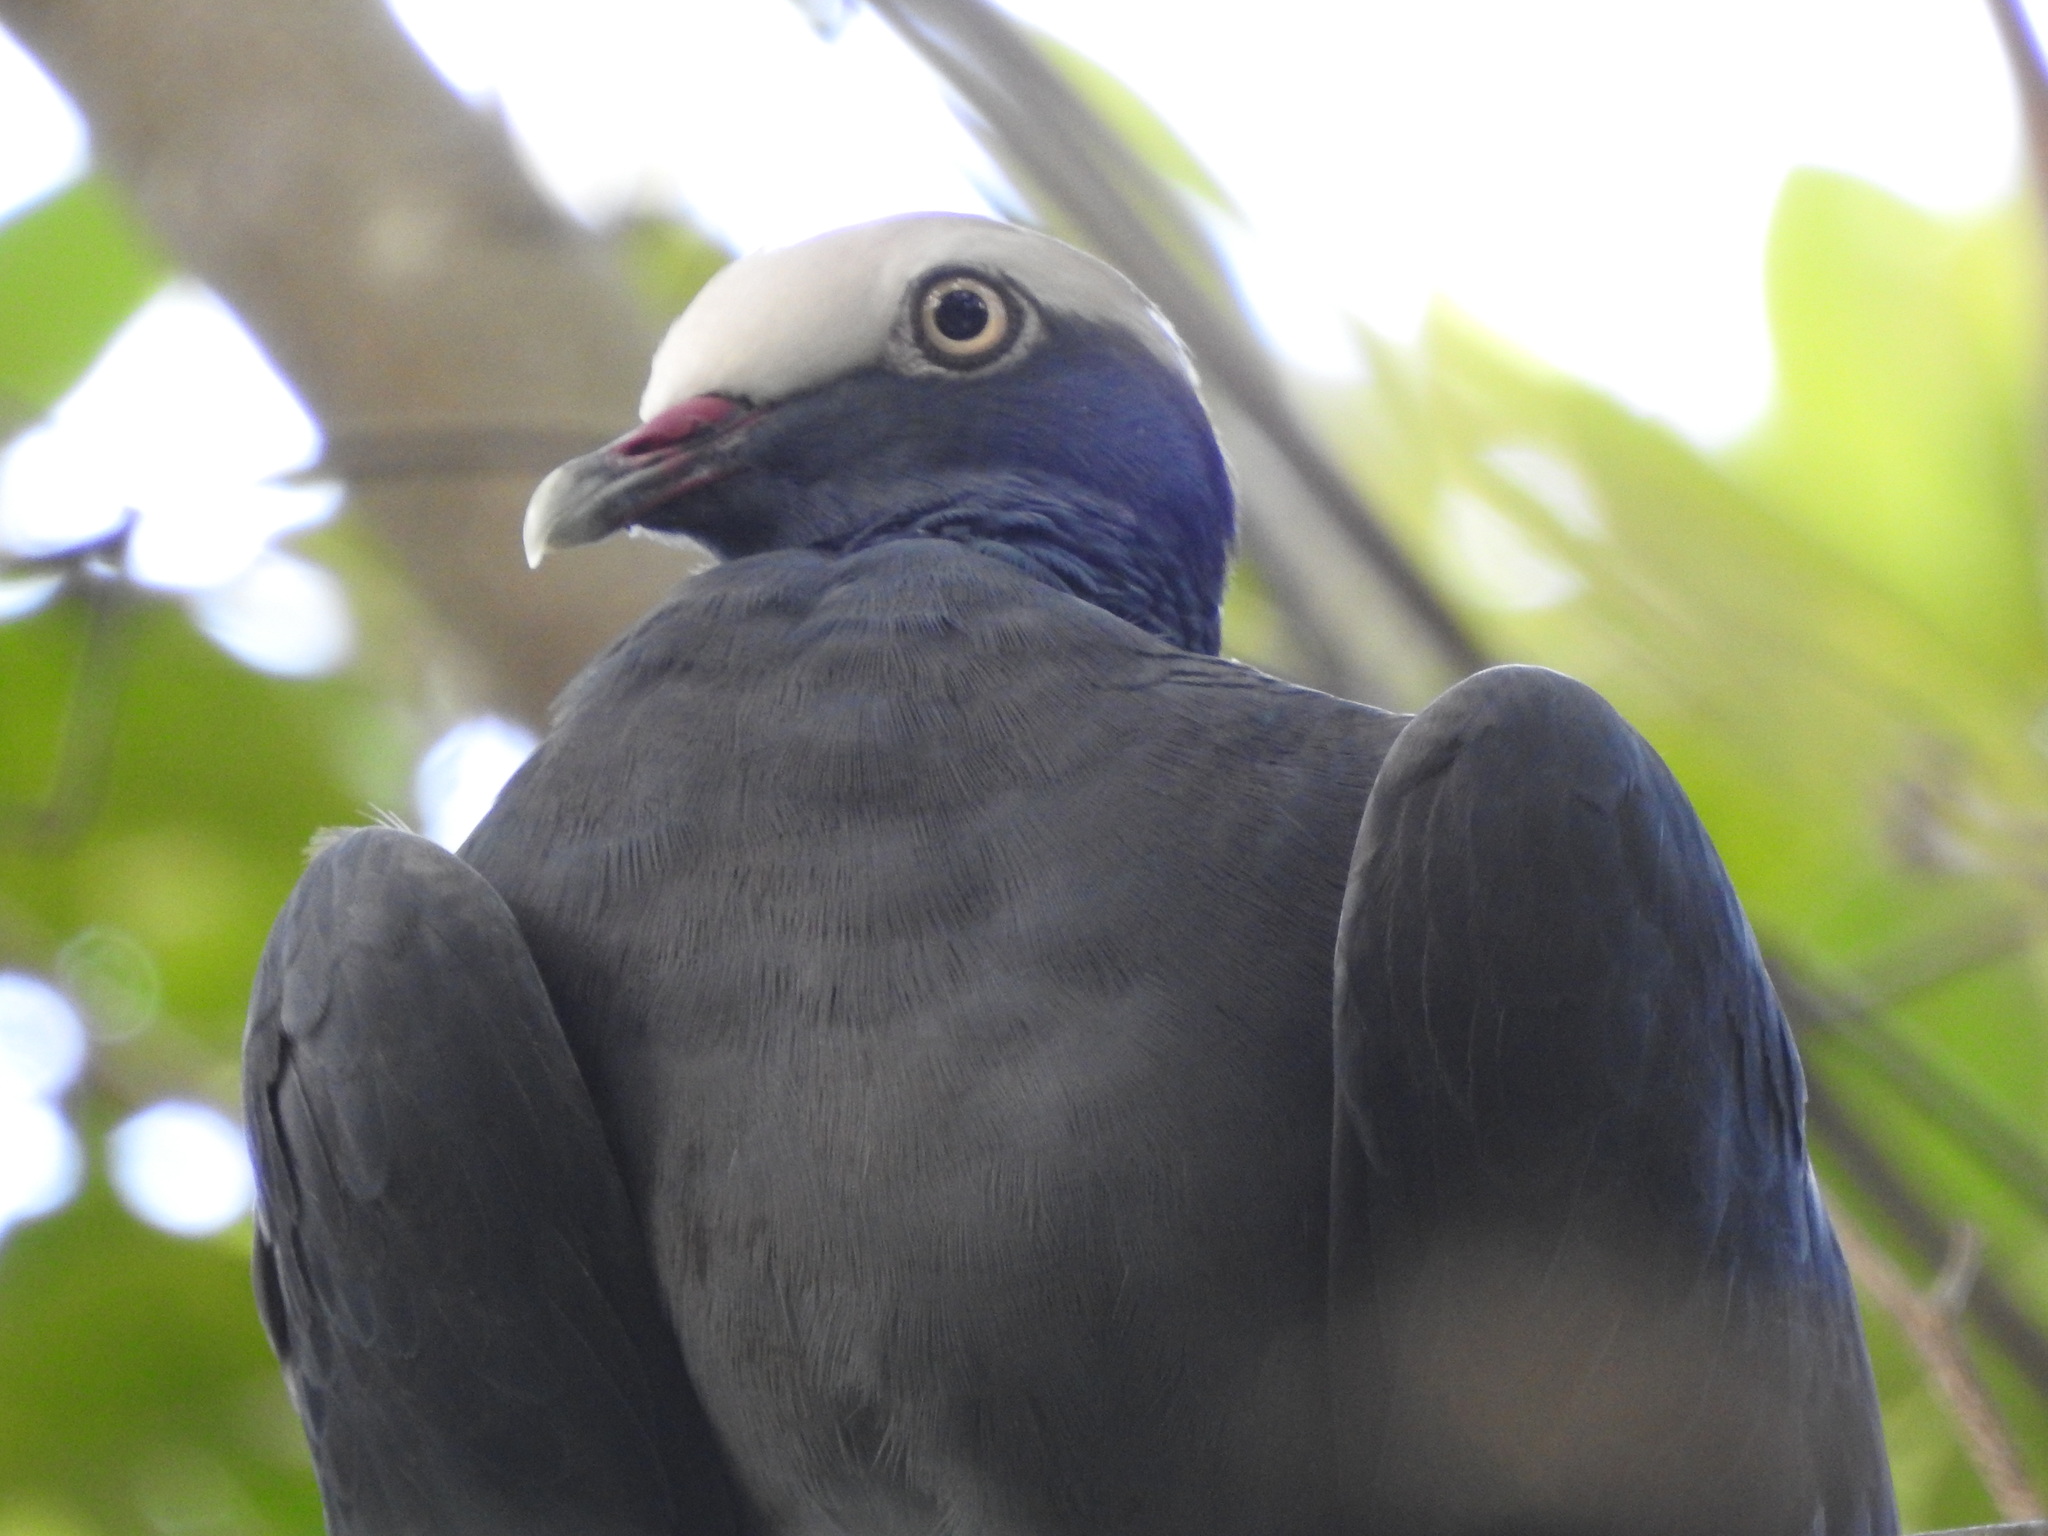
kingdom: Animalia
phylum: Chordata
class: Aves
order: Columbiformes
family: Columbidae
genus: Patagioenas
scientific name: Patagioenas leucocephala
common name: White-crowned pigeon
